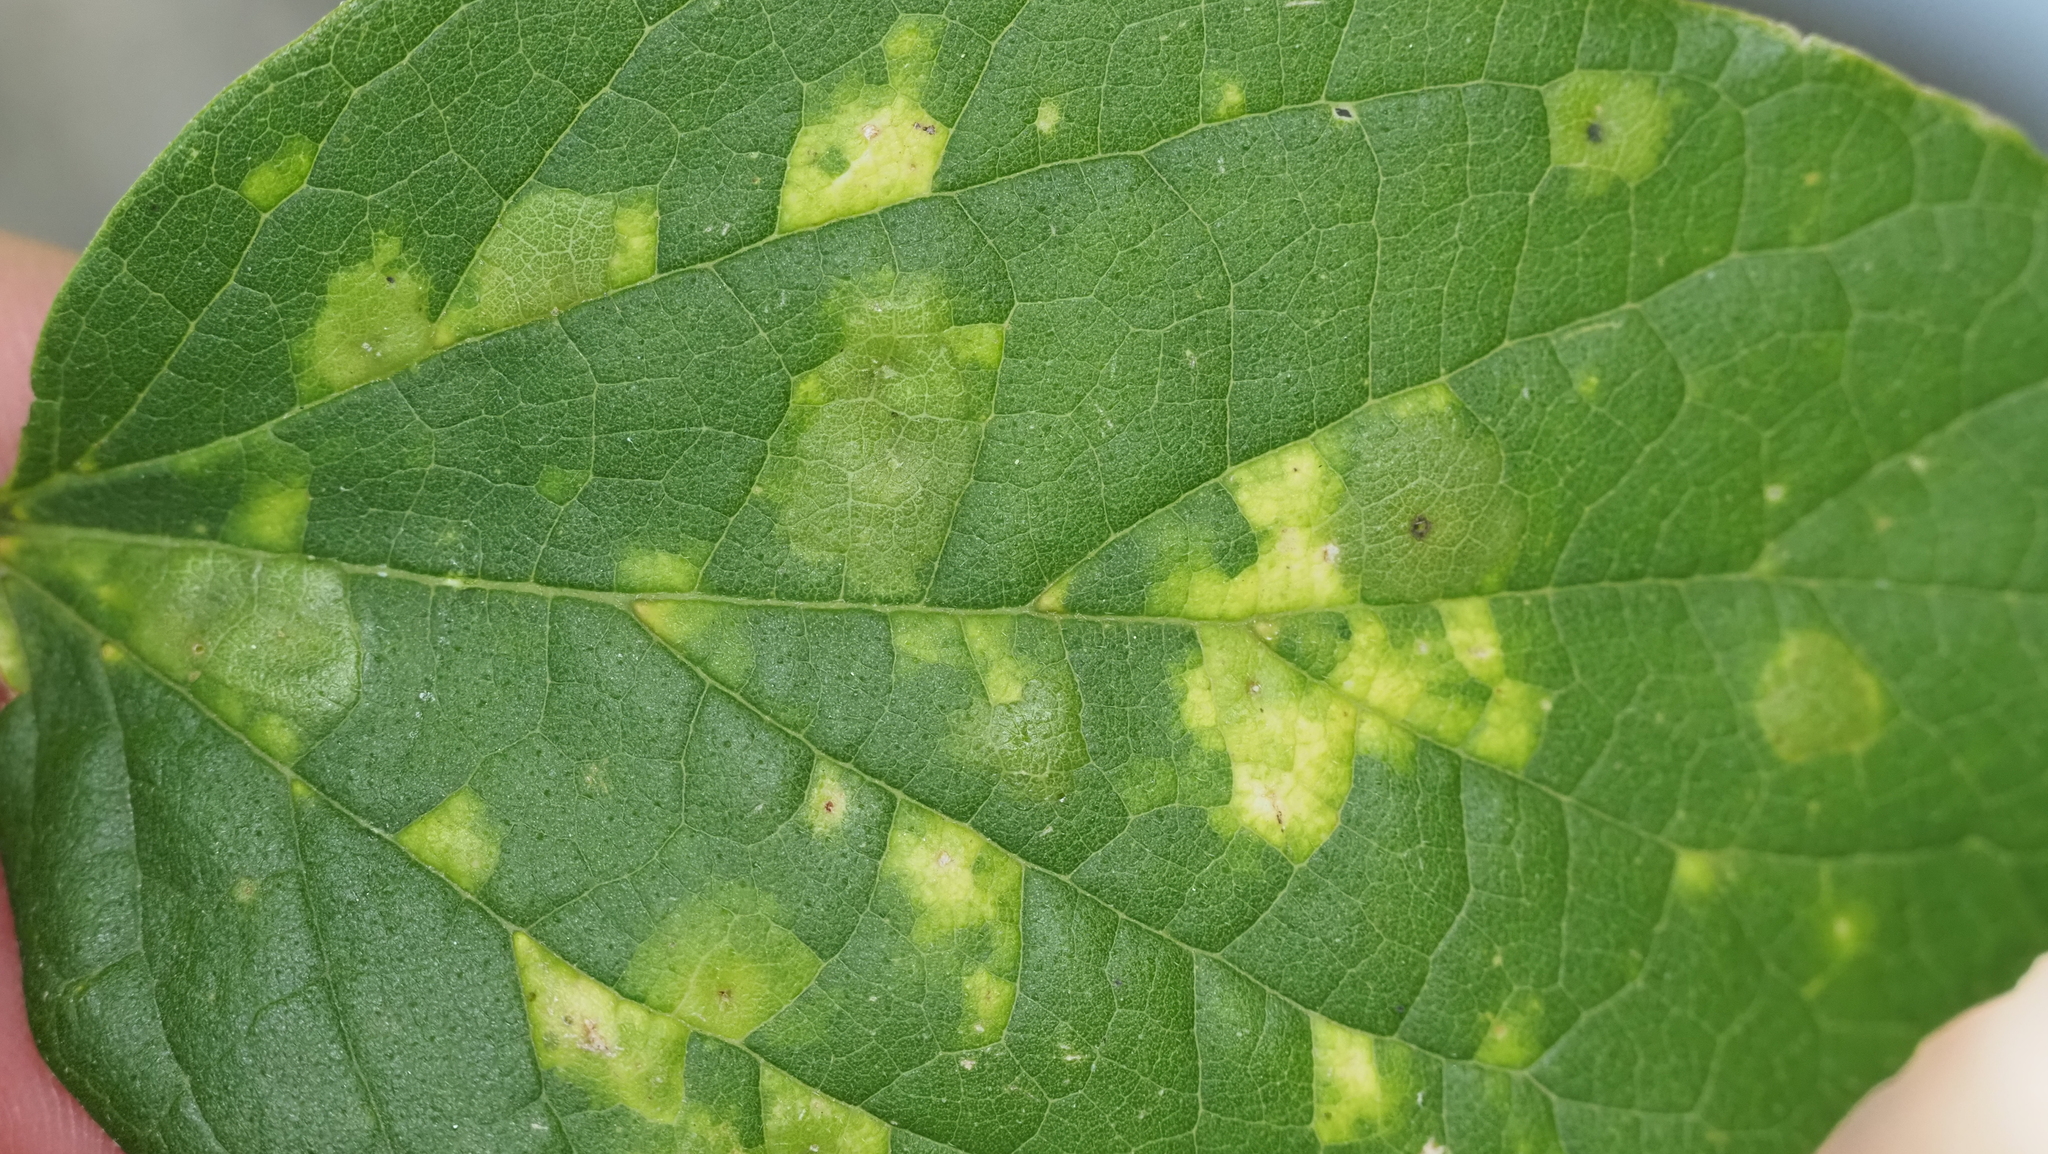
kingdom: Animalia
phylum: Arthropoda
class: Insecta
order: Hemiptera
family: Aphalaridae
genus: Pachypsylla
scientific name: Pachypsylla celtidisvesicula
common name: Hackberry blister gall psyllid
